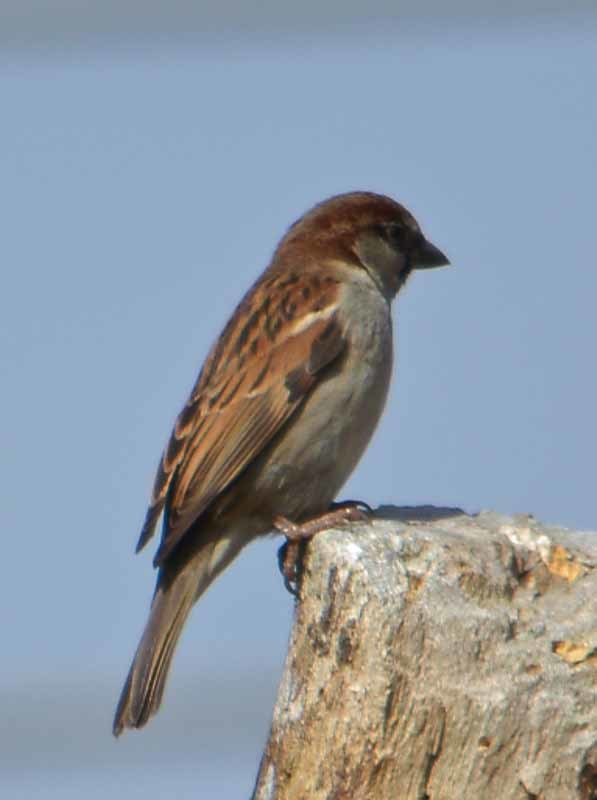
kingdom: Animalia
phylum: Chordata
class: Aves
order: Passeriformes
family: Passeridae
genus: Passer
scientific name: Passer domesticus
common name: House sparrow
